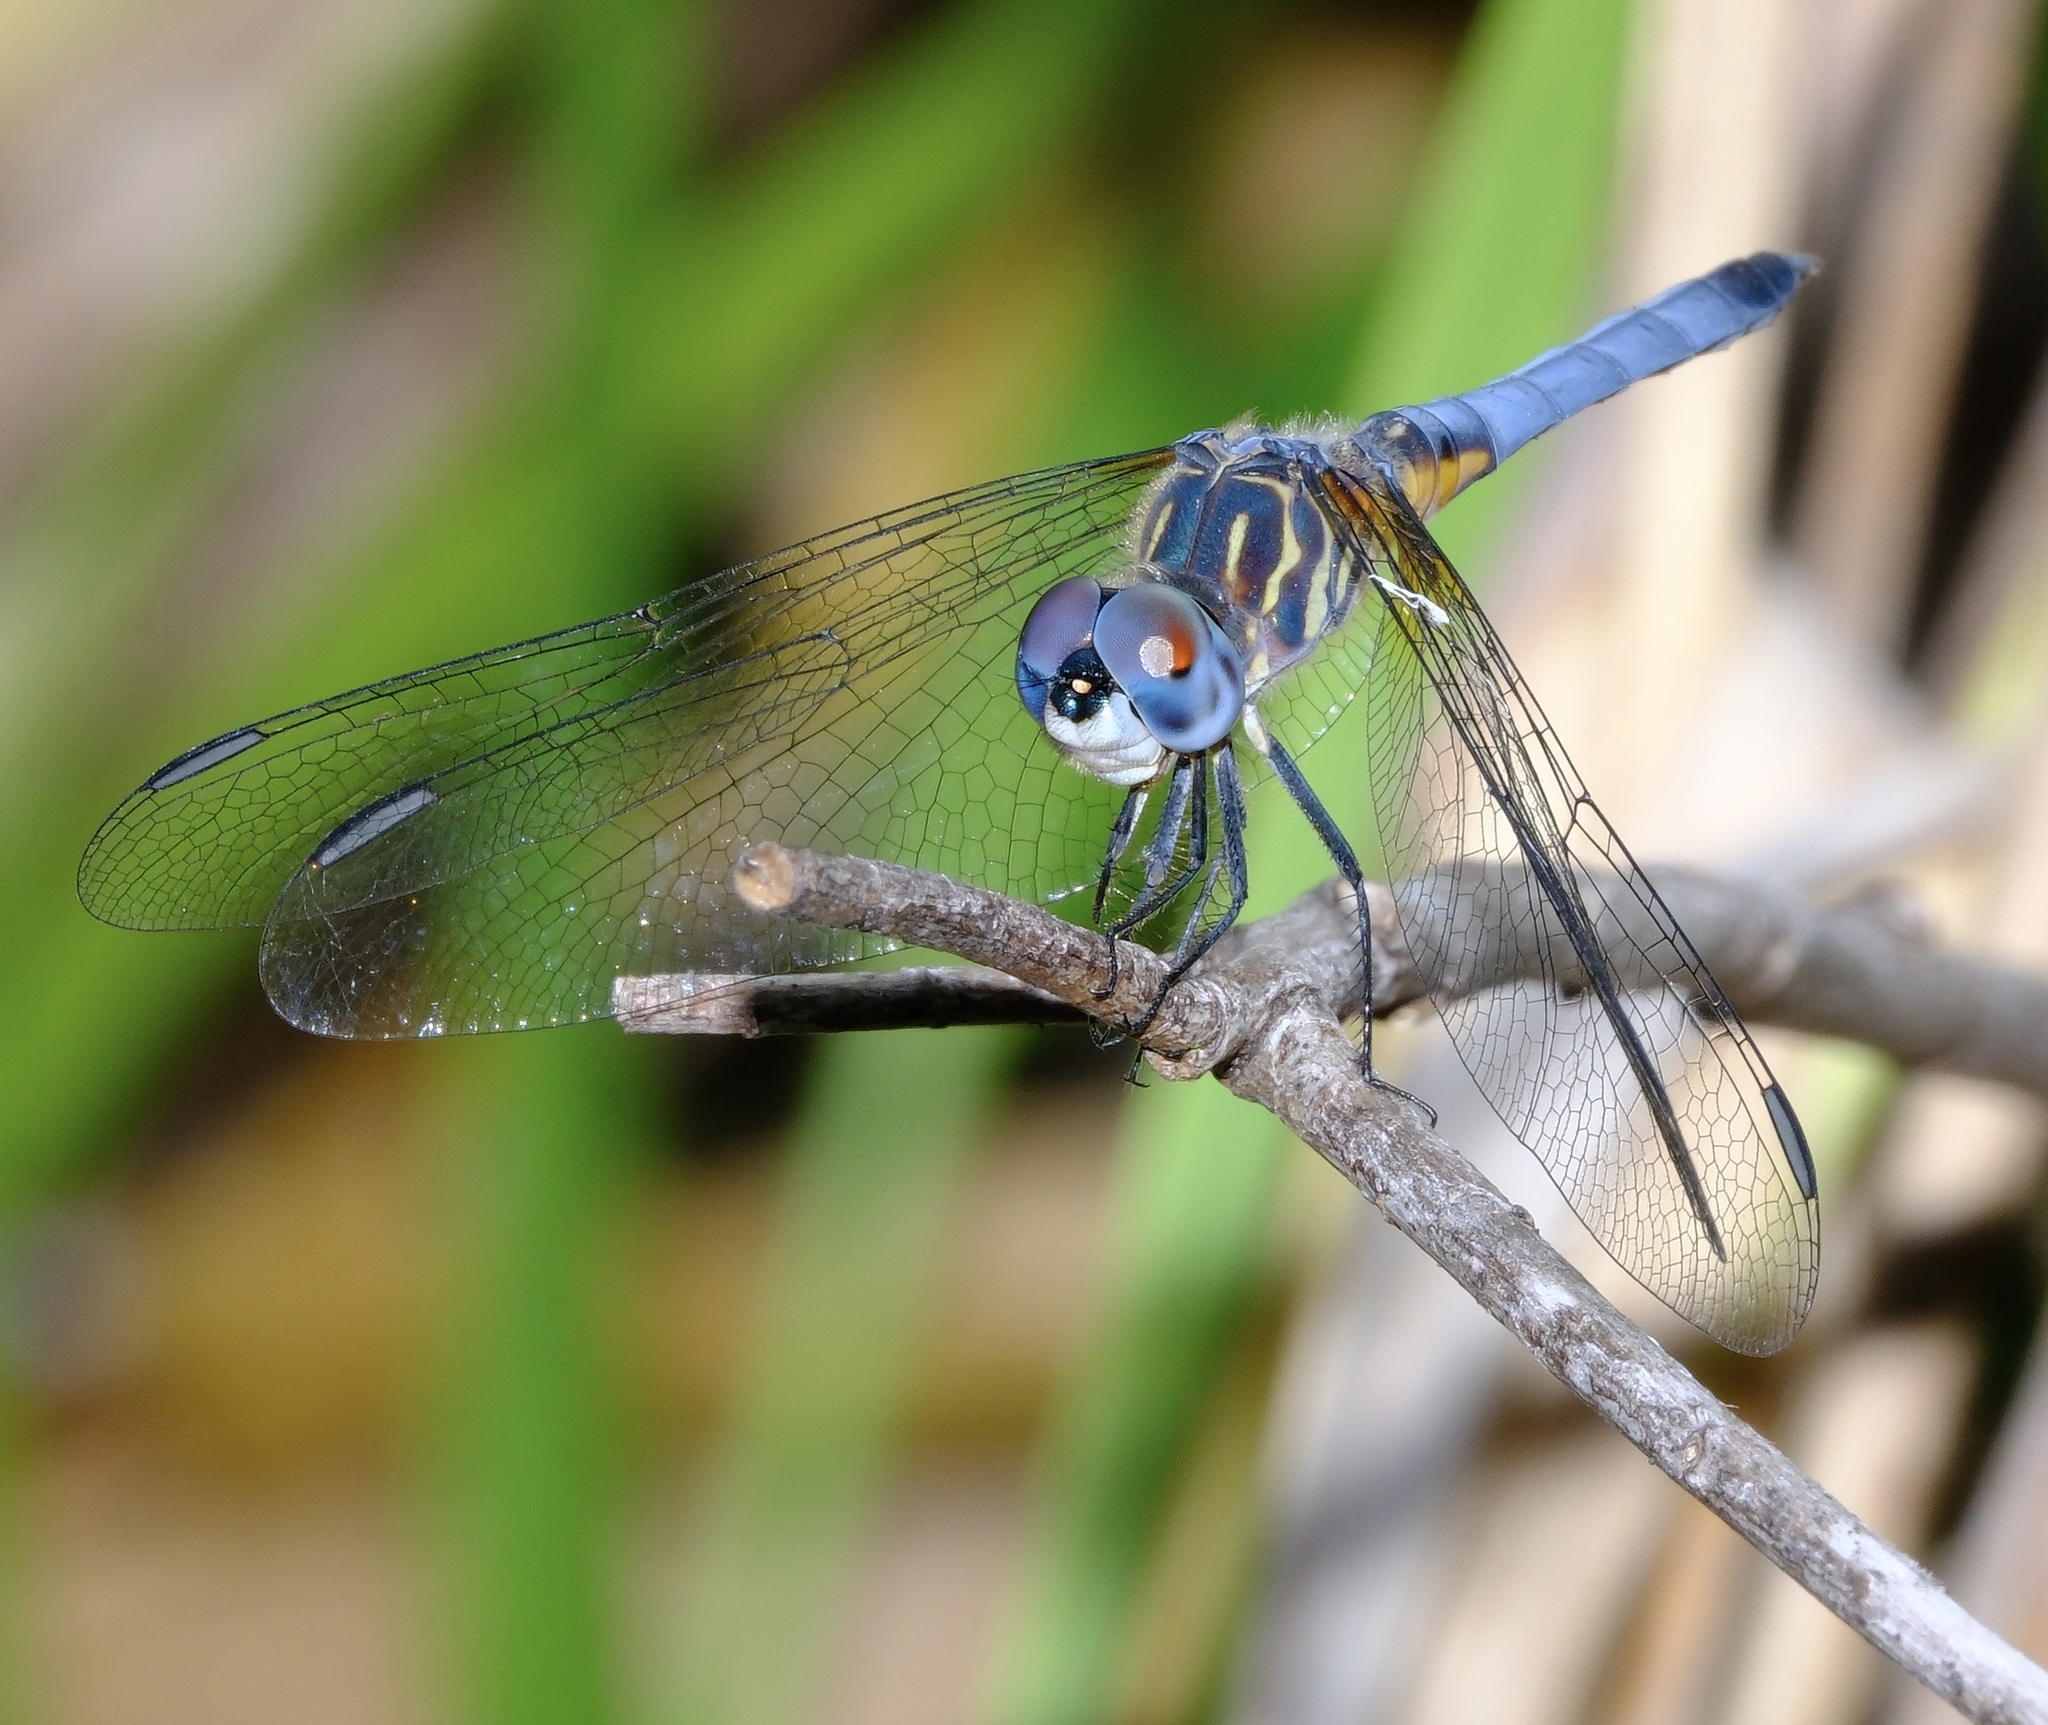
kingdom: Animalia
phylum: Arthropoda
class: Insecta
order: Odonata
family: Libellulidae
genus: Pachydiplax
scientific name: Pachydiplax longipennis
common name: Blue dasher
